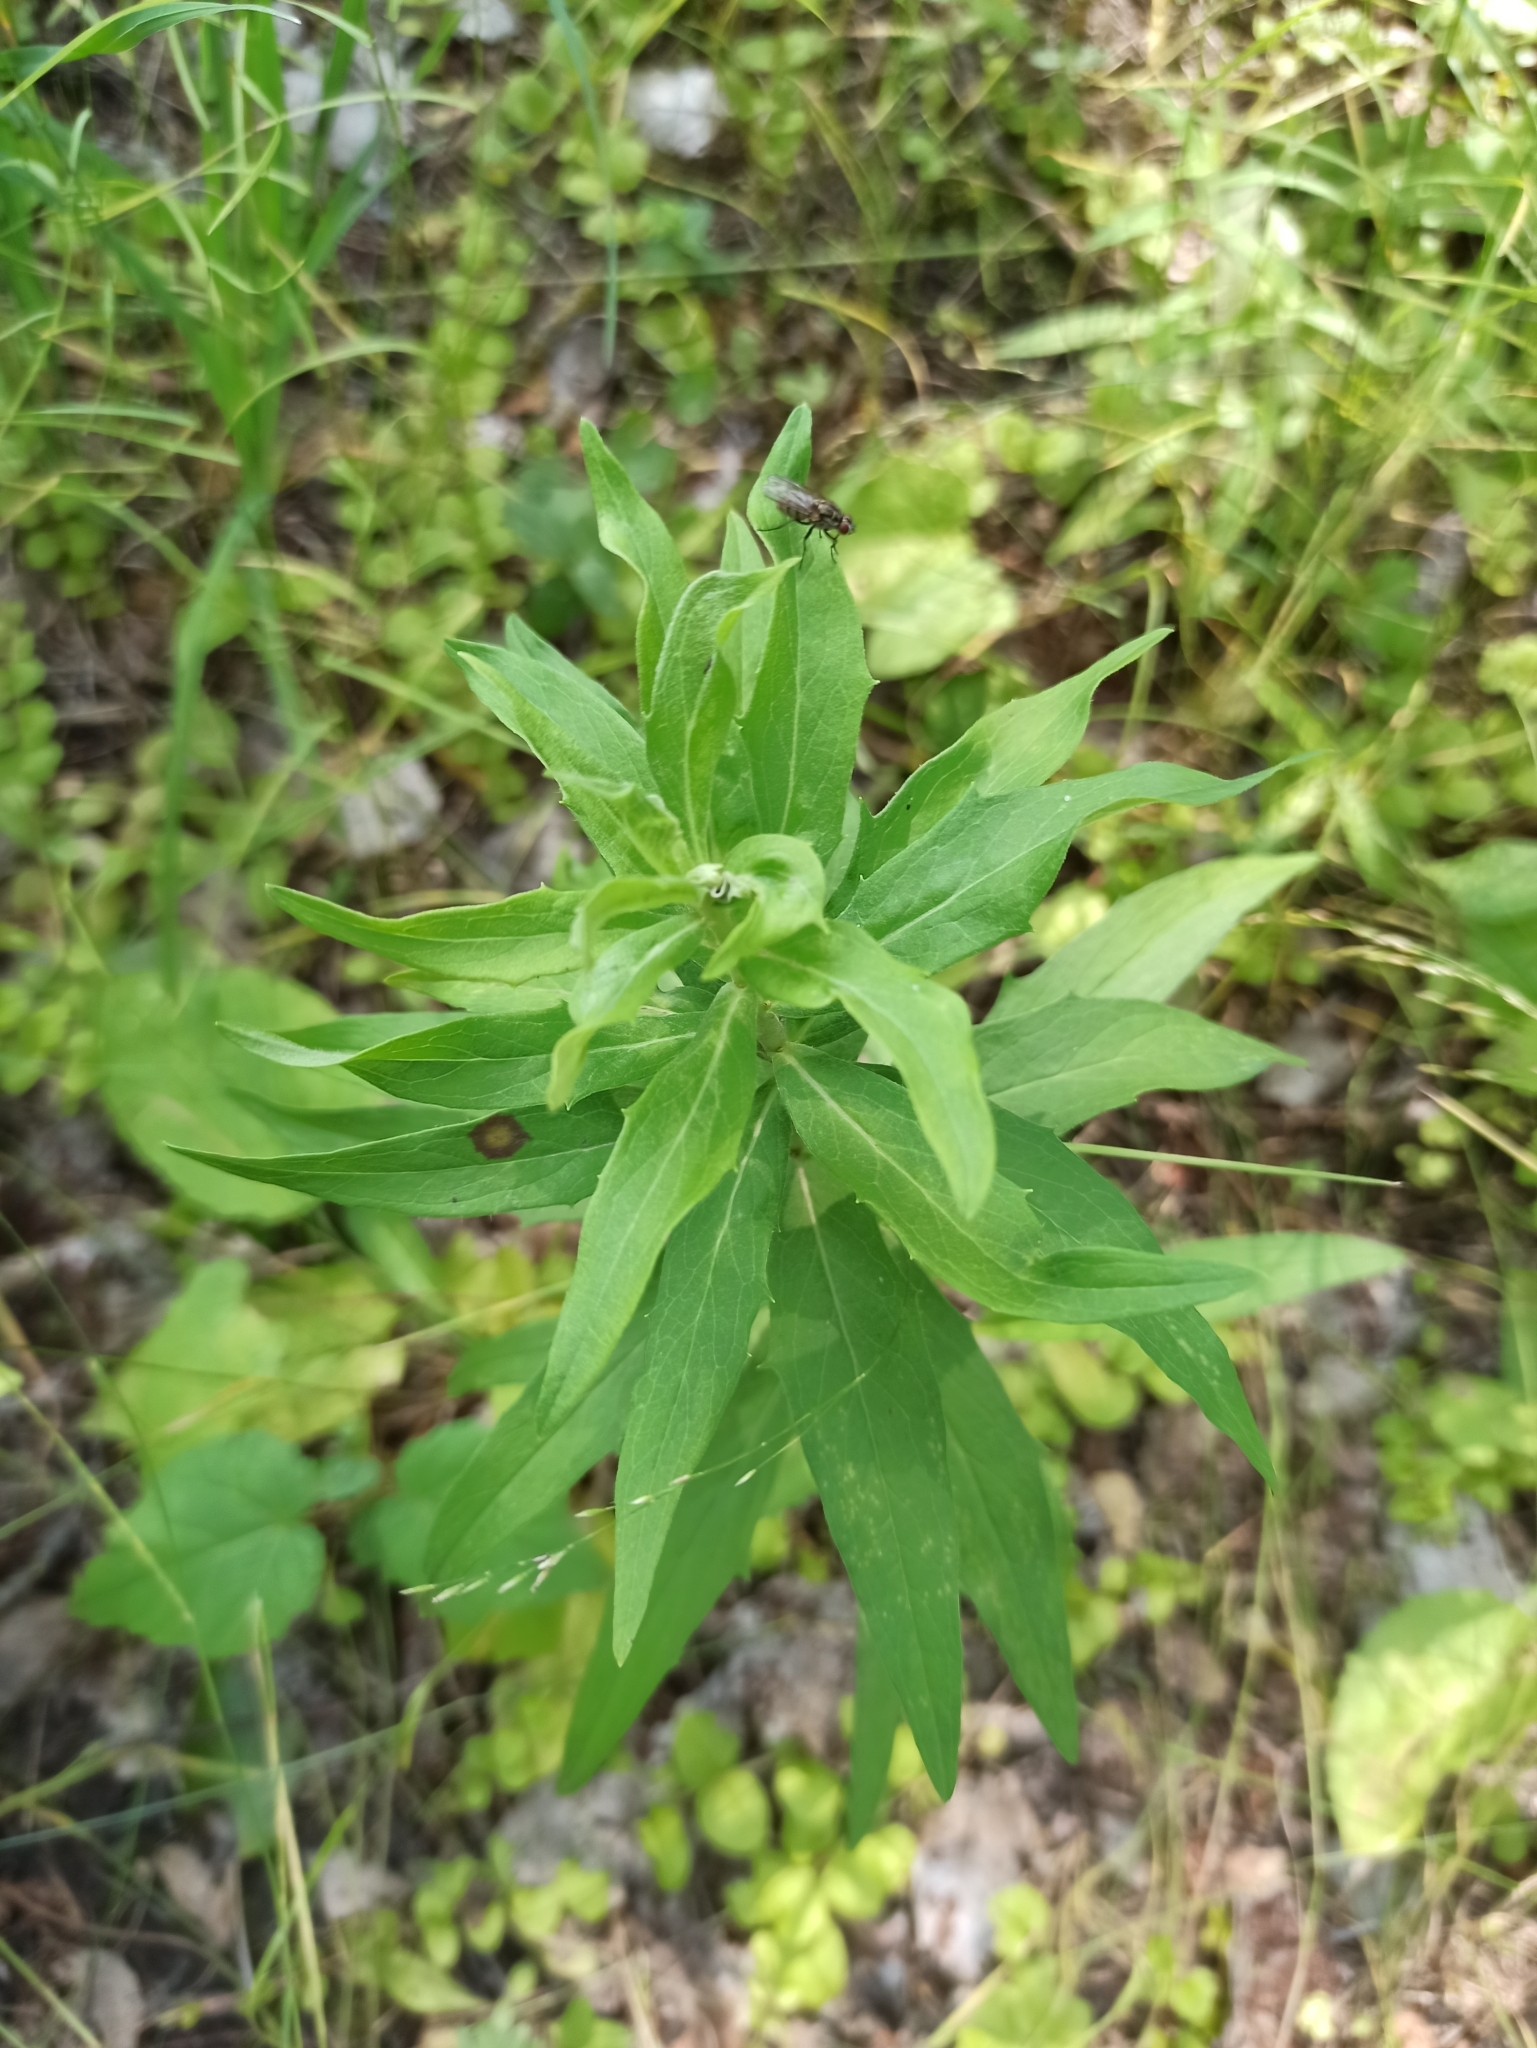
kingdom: Plantae
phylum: Tracheophyta
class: Magnoliopsida
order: Asterales
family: Asteraceae
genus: Solidago
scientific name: Solidago canadensis
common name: Canada goldenrod
